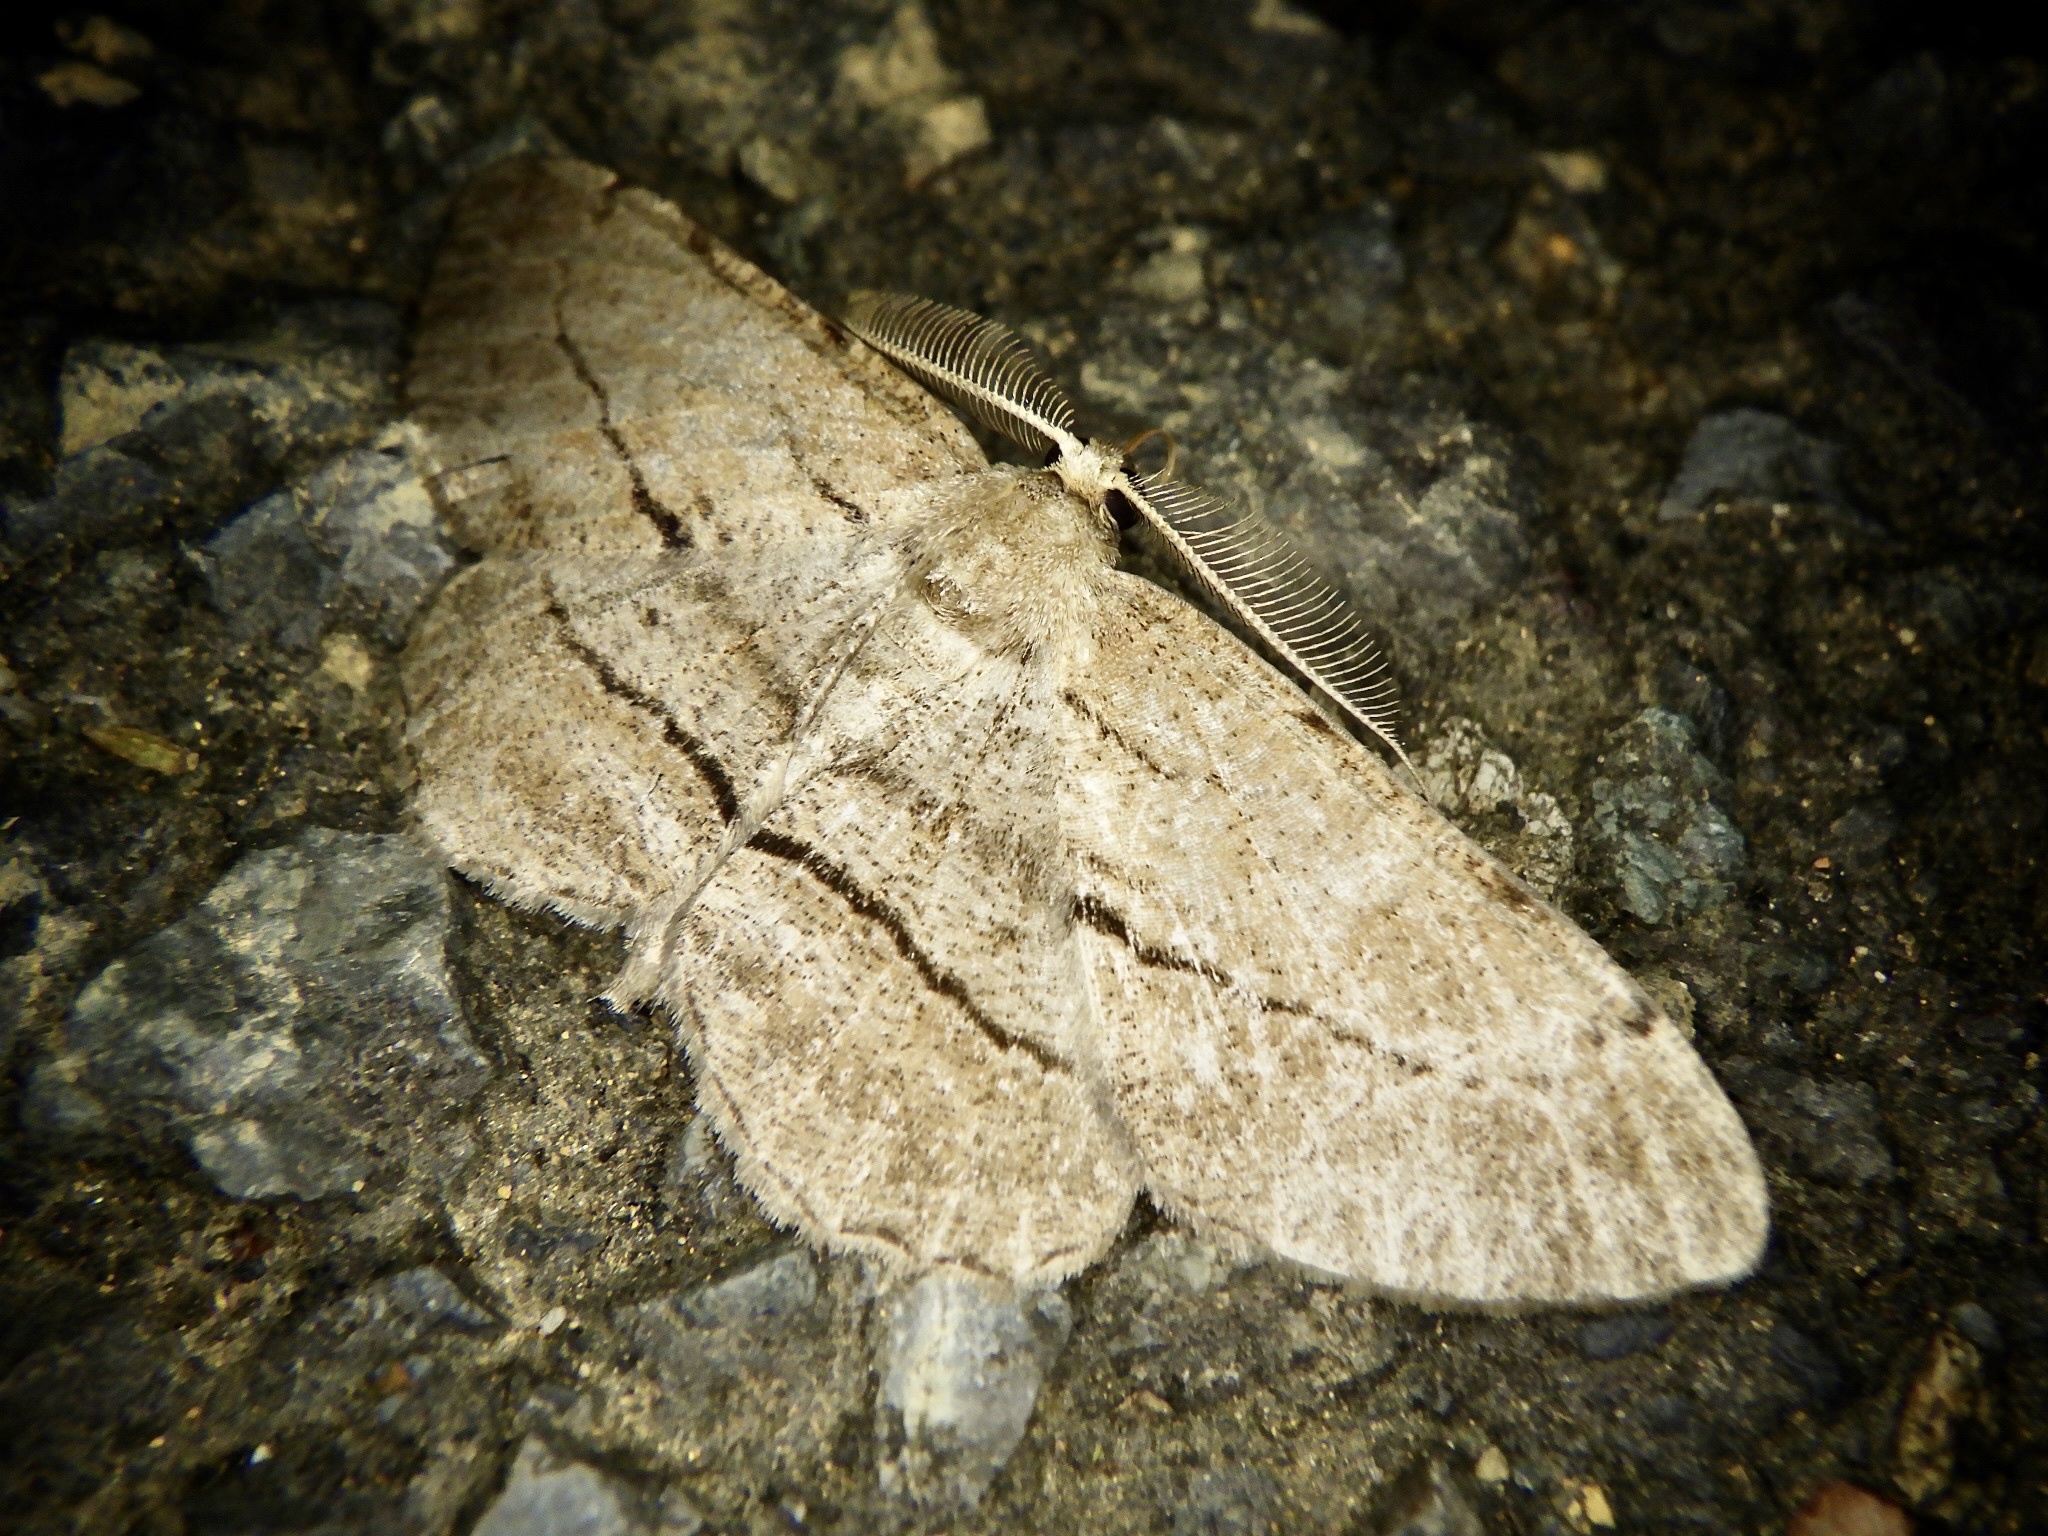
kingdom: Animalia
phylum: Arthropoda
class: Insecta
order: Lepidoptera
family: Geometridae
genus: Apocleora
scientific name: Apocleora rimosa
